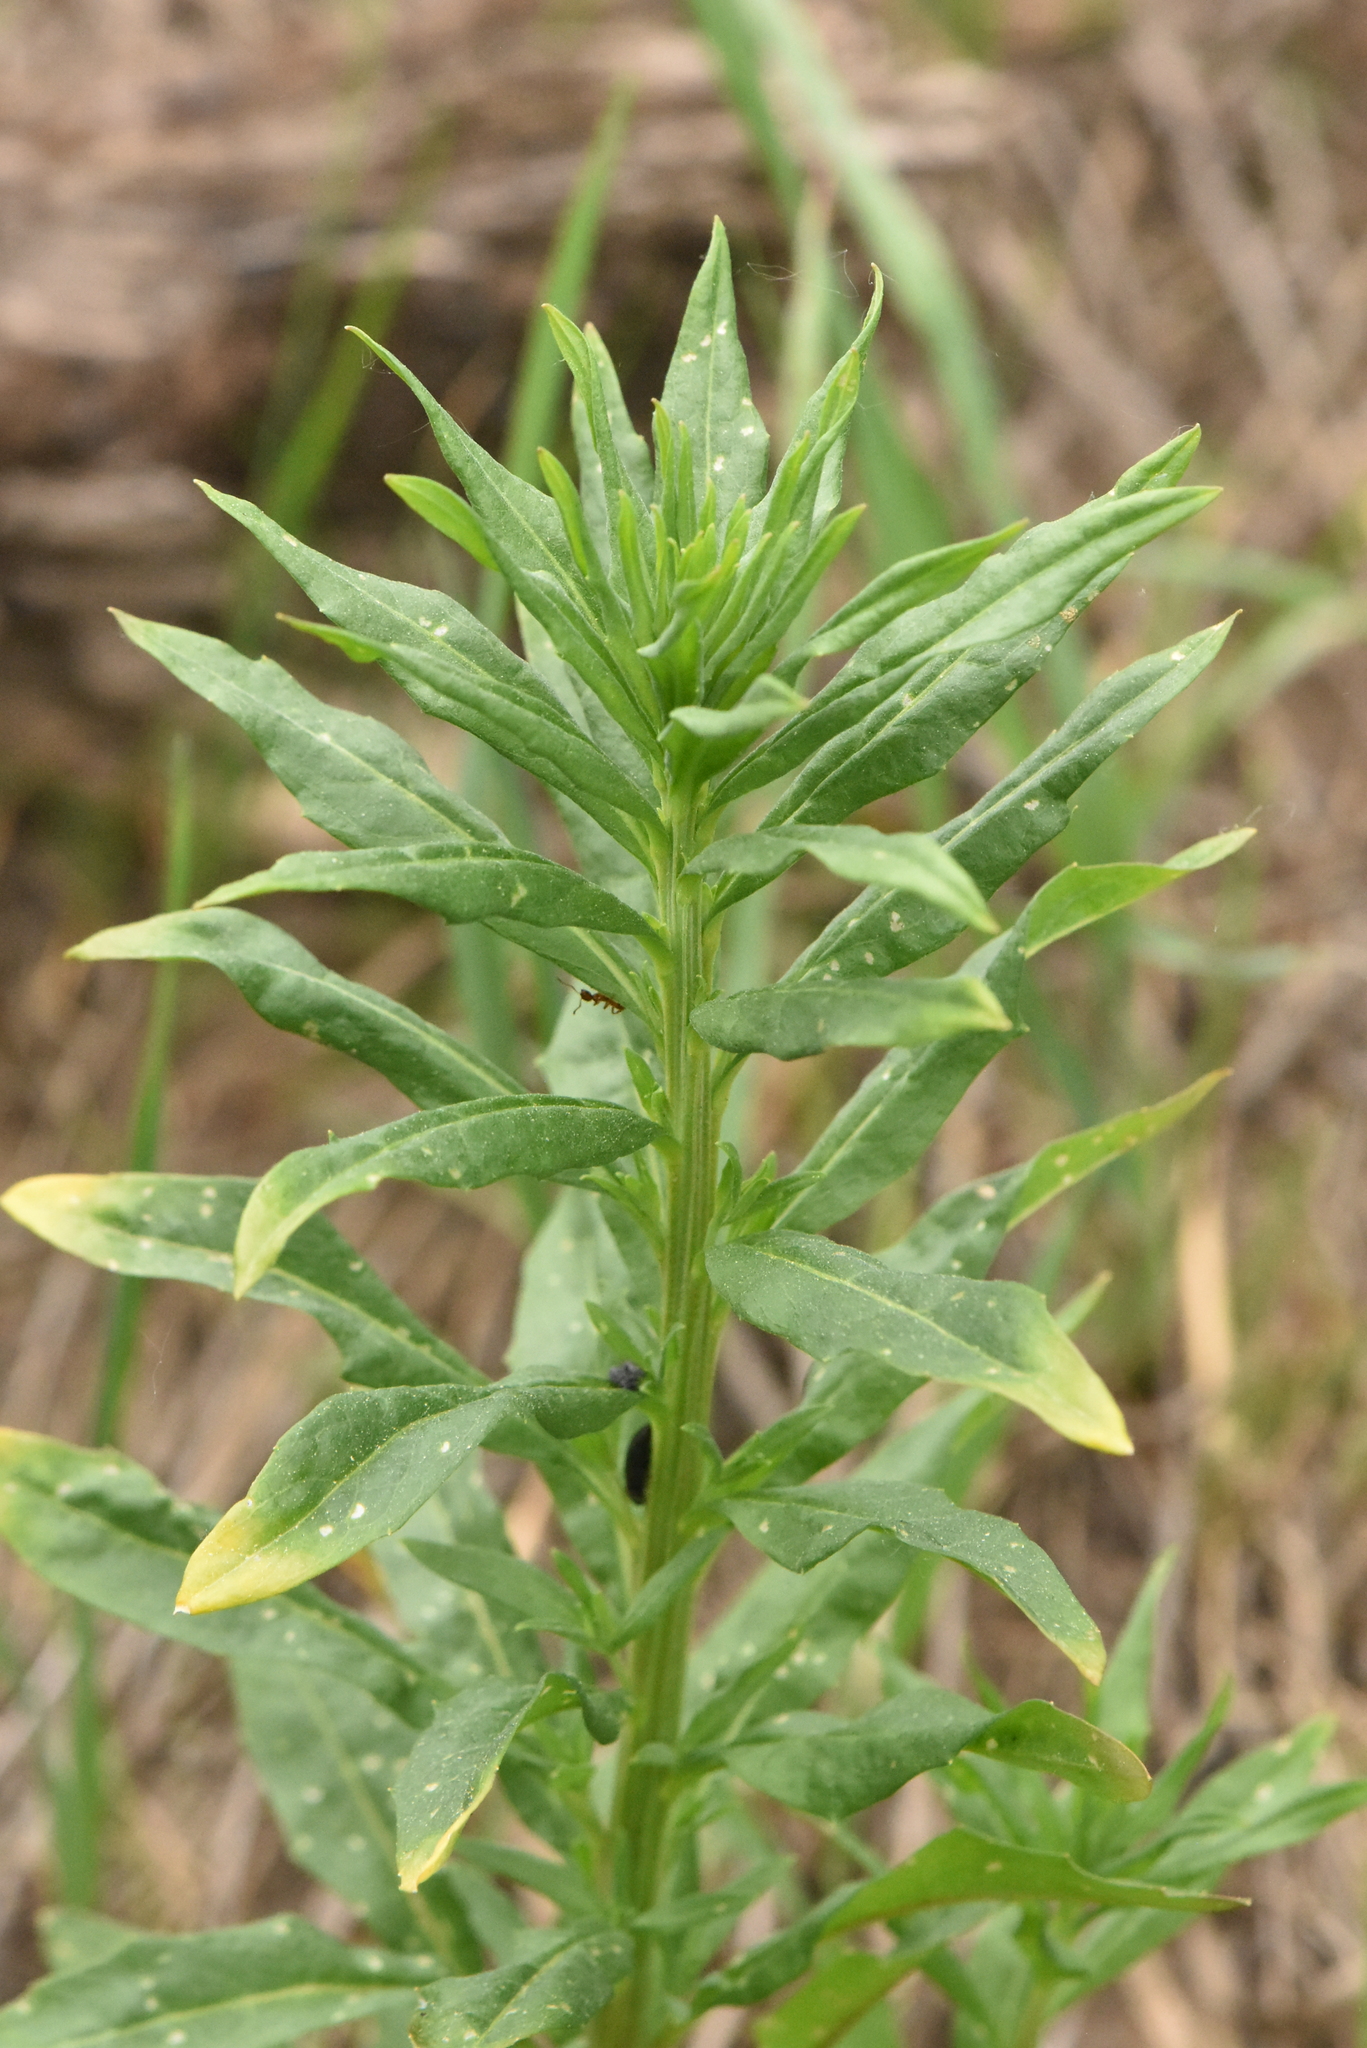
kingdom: Plantae
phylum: Tracheophyta
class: Magnoliopsida
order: Brassicales
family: Brassicaceae
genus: Erysimum
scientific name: Erysimum cheiranthoides
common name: Treacle mustard
